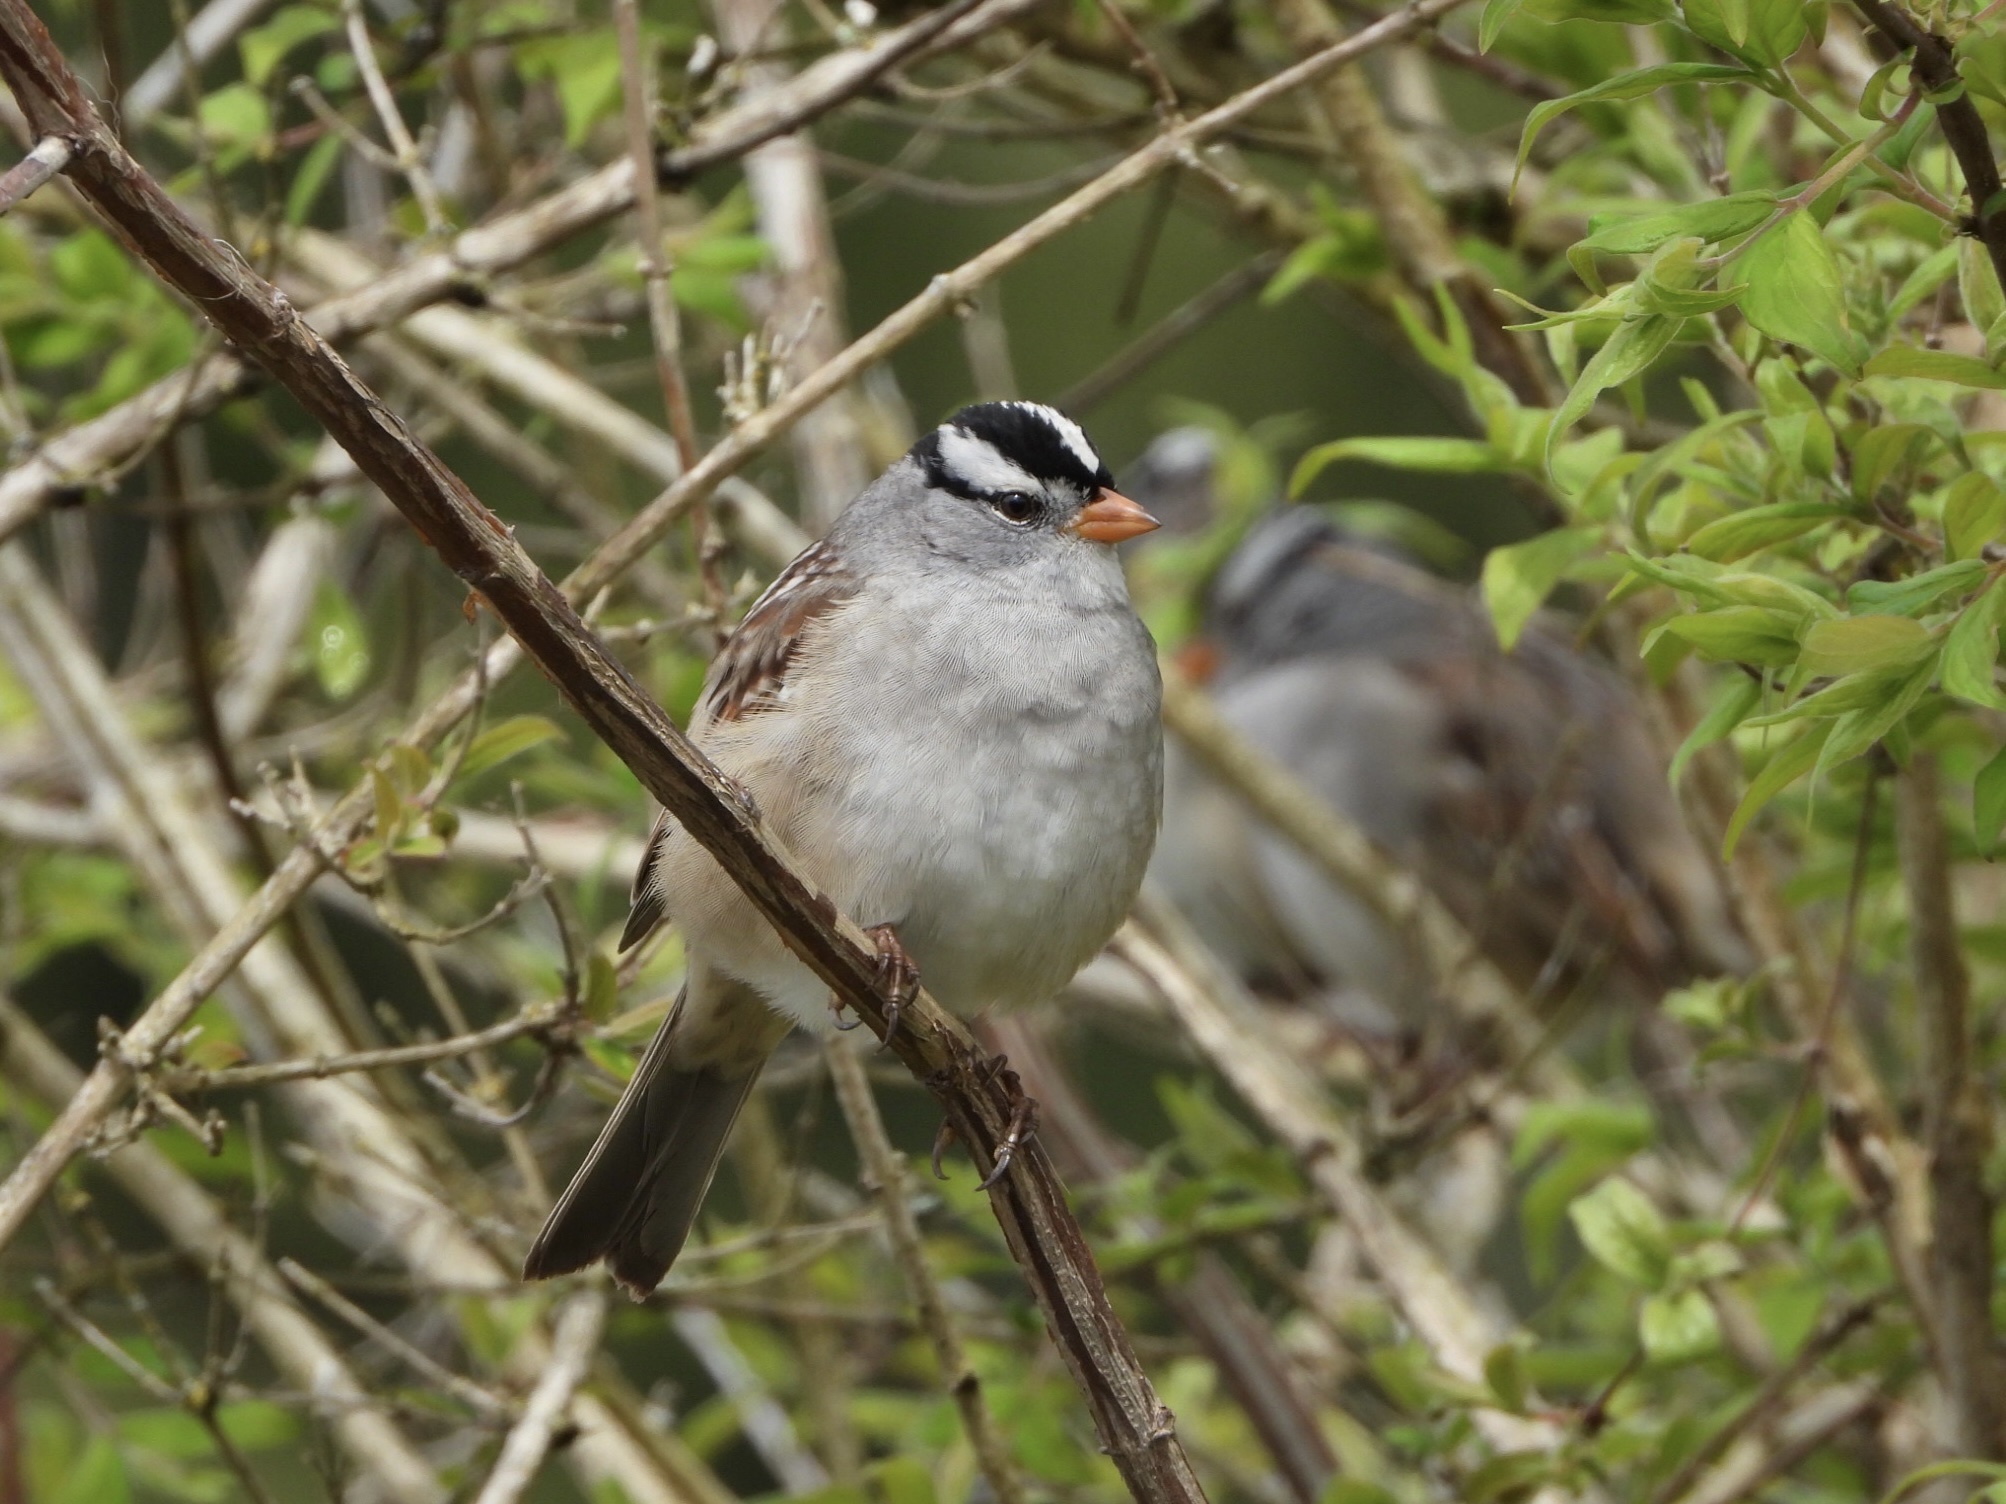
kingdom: Animalia
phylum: Chordata
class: Aves
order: Passeriformes
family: Passerellidae
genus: Zonotrichia
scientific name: Zonotrichia leucophrys
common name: White-crowned sparrow
